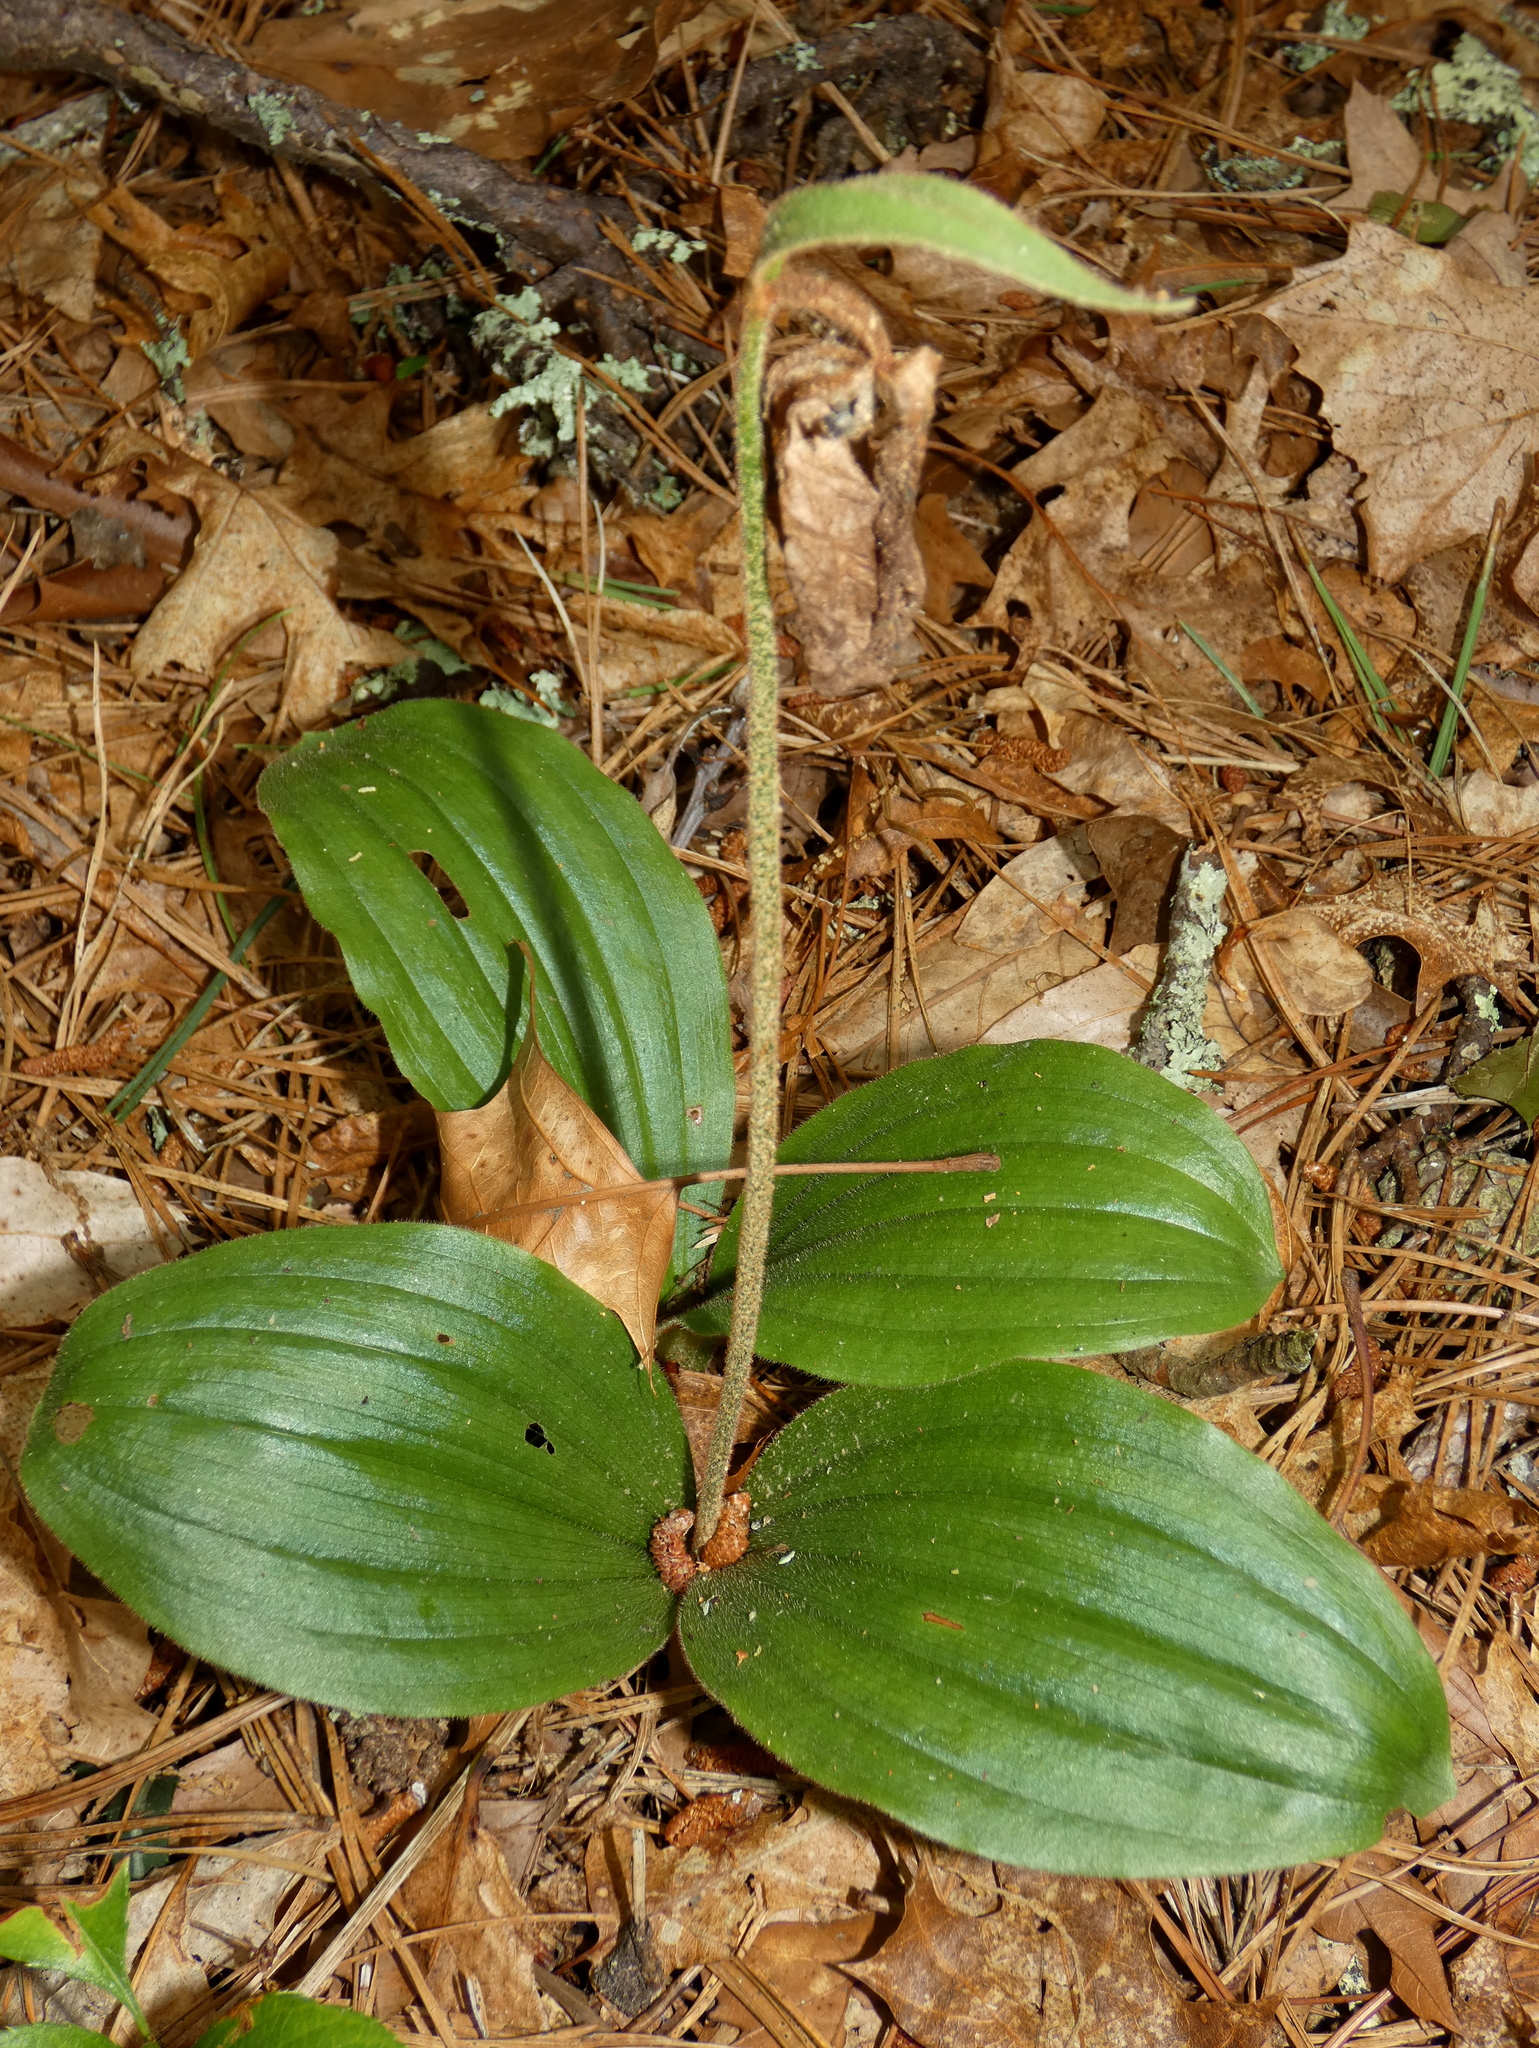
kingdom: Plantae
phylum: Tracheophyta
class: Liliopsida
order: Asparagales
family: Orchidaceae
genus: Cypripedium
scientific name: Cypripedium acaule
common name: Pink lady's-slipper
